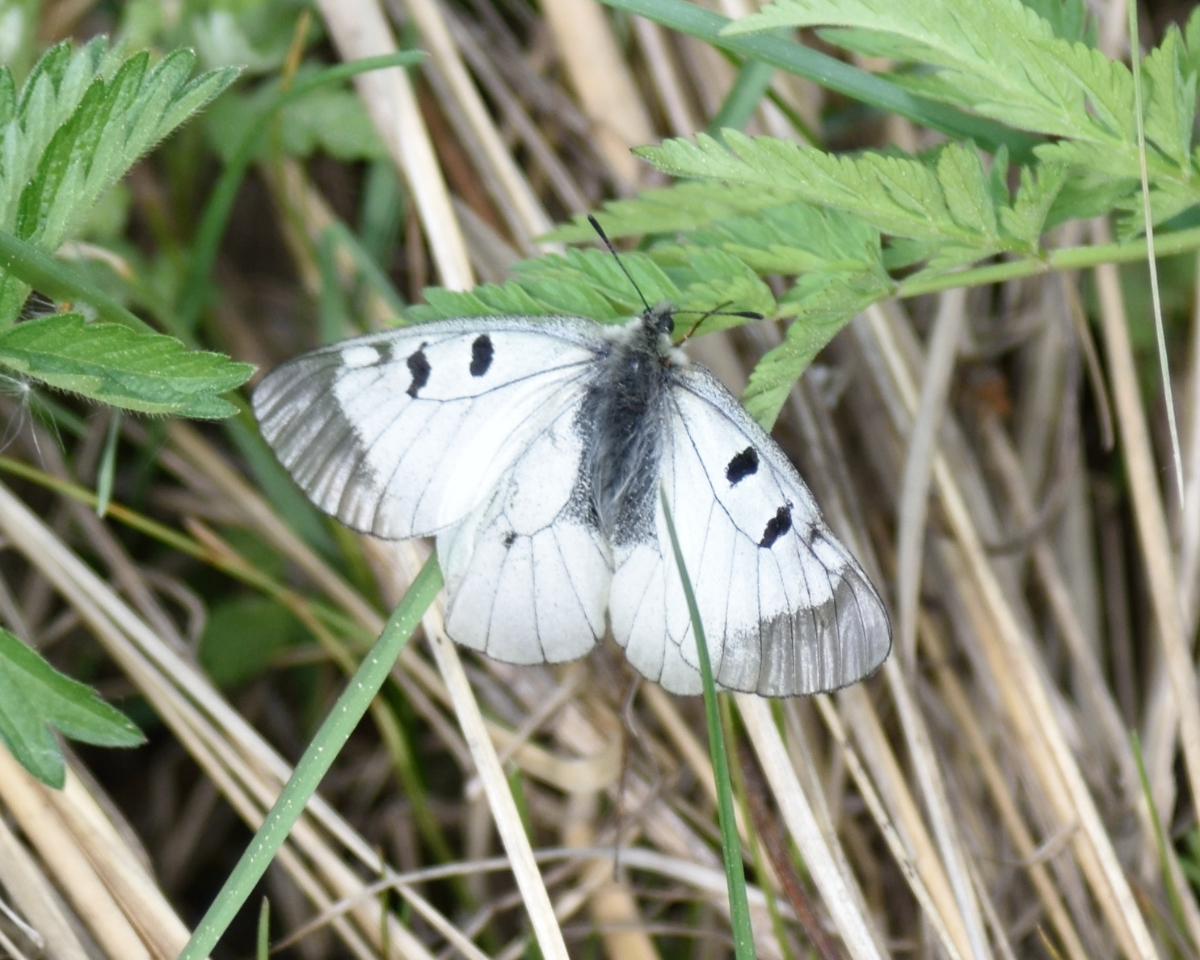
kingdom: Animalia
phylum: Arthropoda
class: Insecta
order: Lepidoptera
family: Papilionidae
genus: Parnassius
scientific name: Parnassius mnemosyne
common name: Clouded apollo
